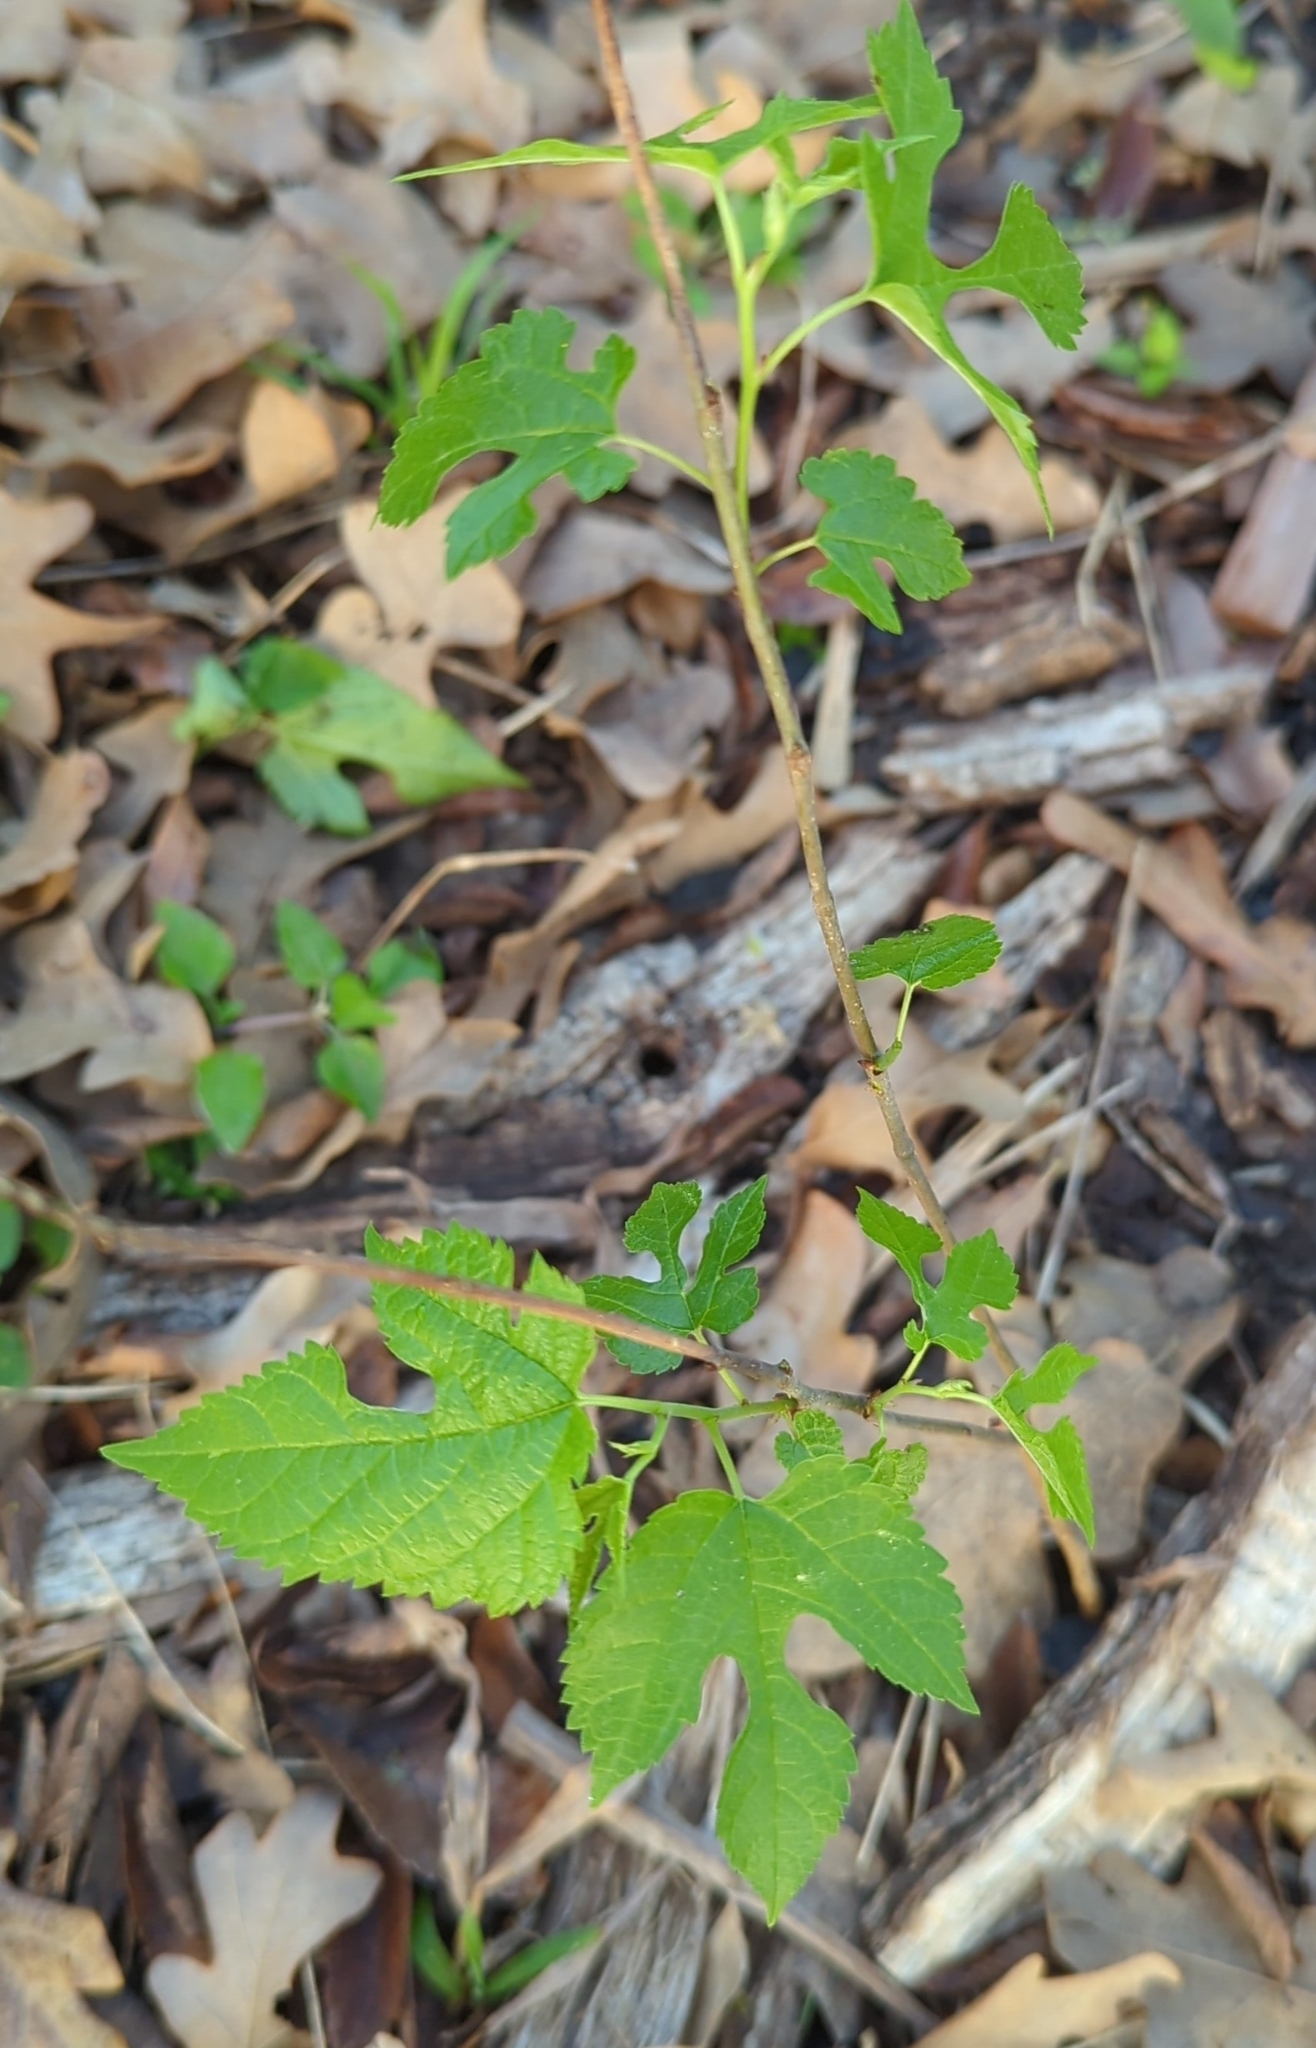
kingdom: Plantae
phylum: Tracheophyta
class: Magnoliopsida
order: Rosales
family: Moraceae
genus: Morus
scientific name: Morus rubra
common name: Red mulberry
